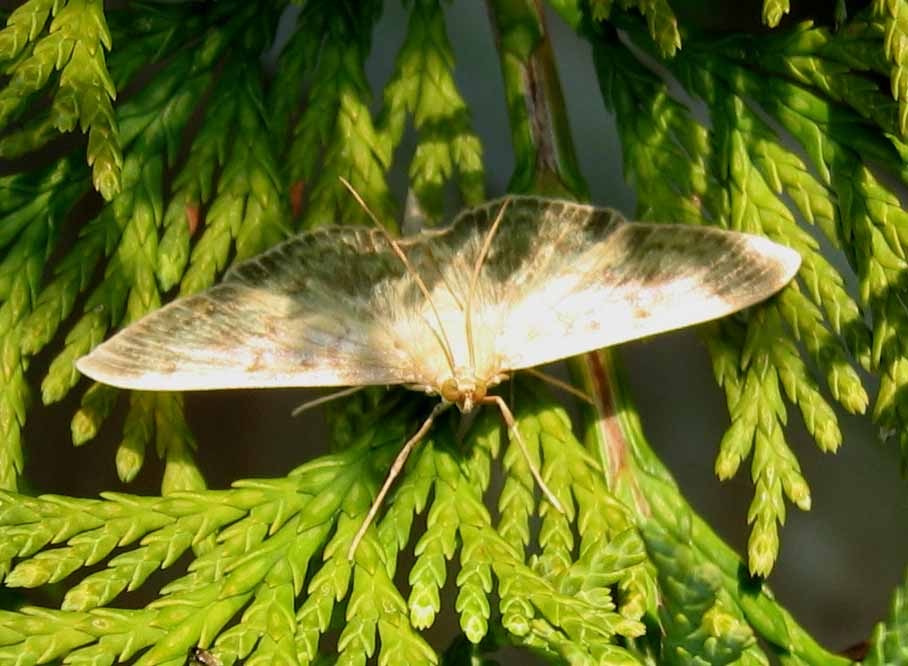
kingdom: Animalia
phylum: Arthropoda
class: Insecta
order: Lepidoptera
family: Crambidae
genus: Patania
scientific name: Patania ruralis
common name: Mother of pearl
